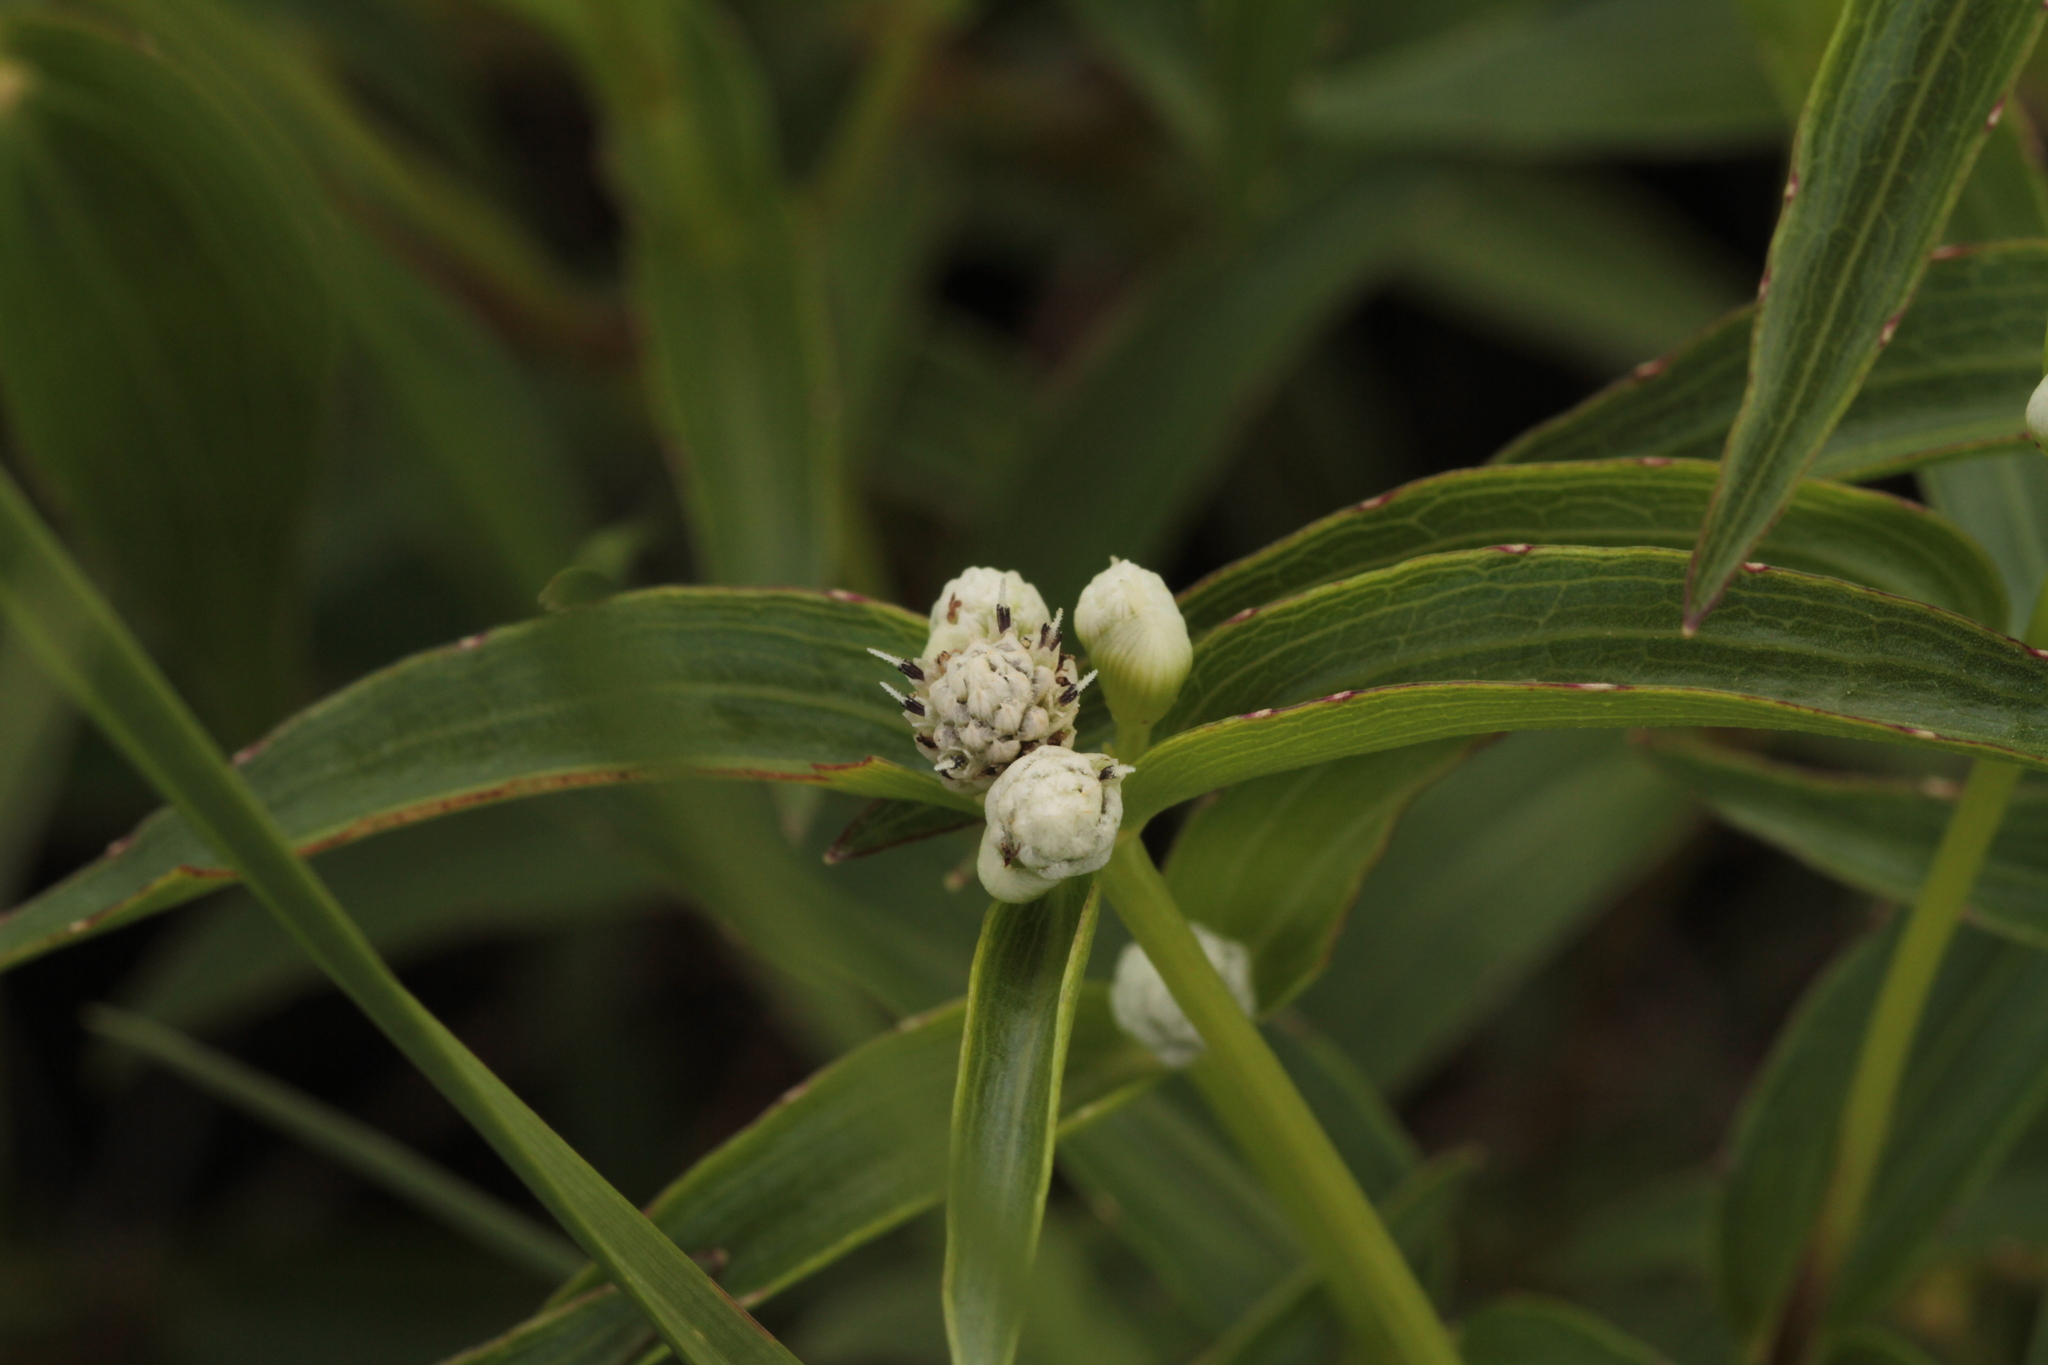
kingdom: Plantae
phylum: Tracheophyta
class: Magnoliopsida
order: Asterales
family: Asteraceae
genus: Ichthyothere
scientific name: Ichthyothere terminalis
